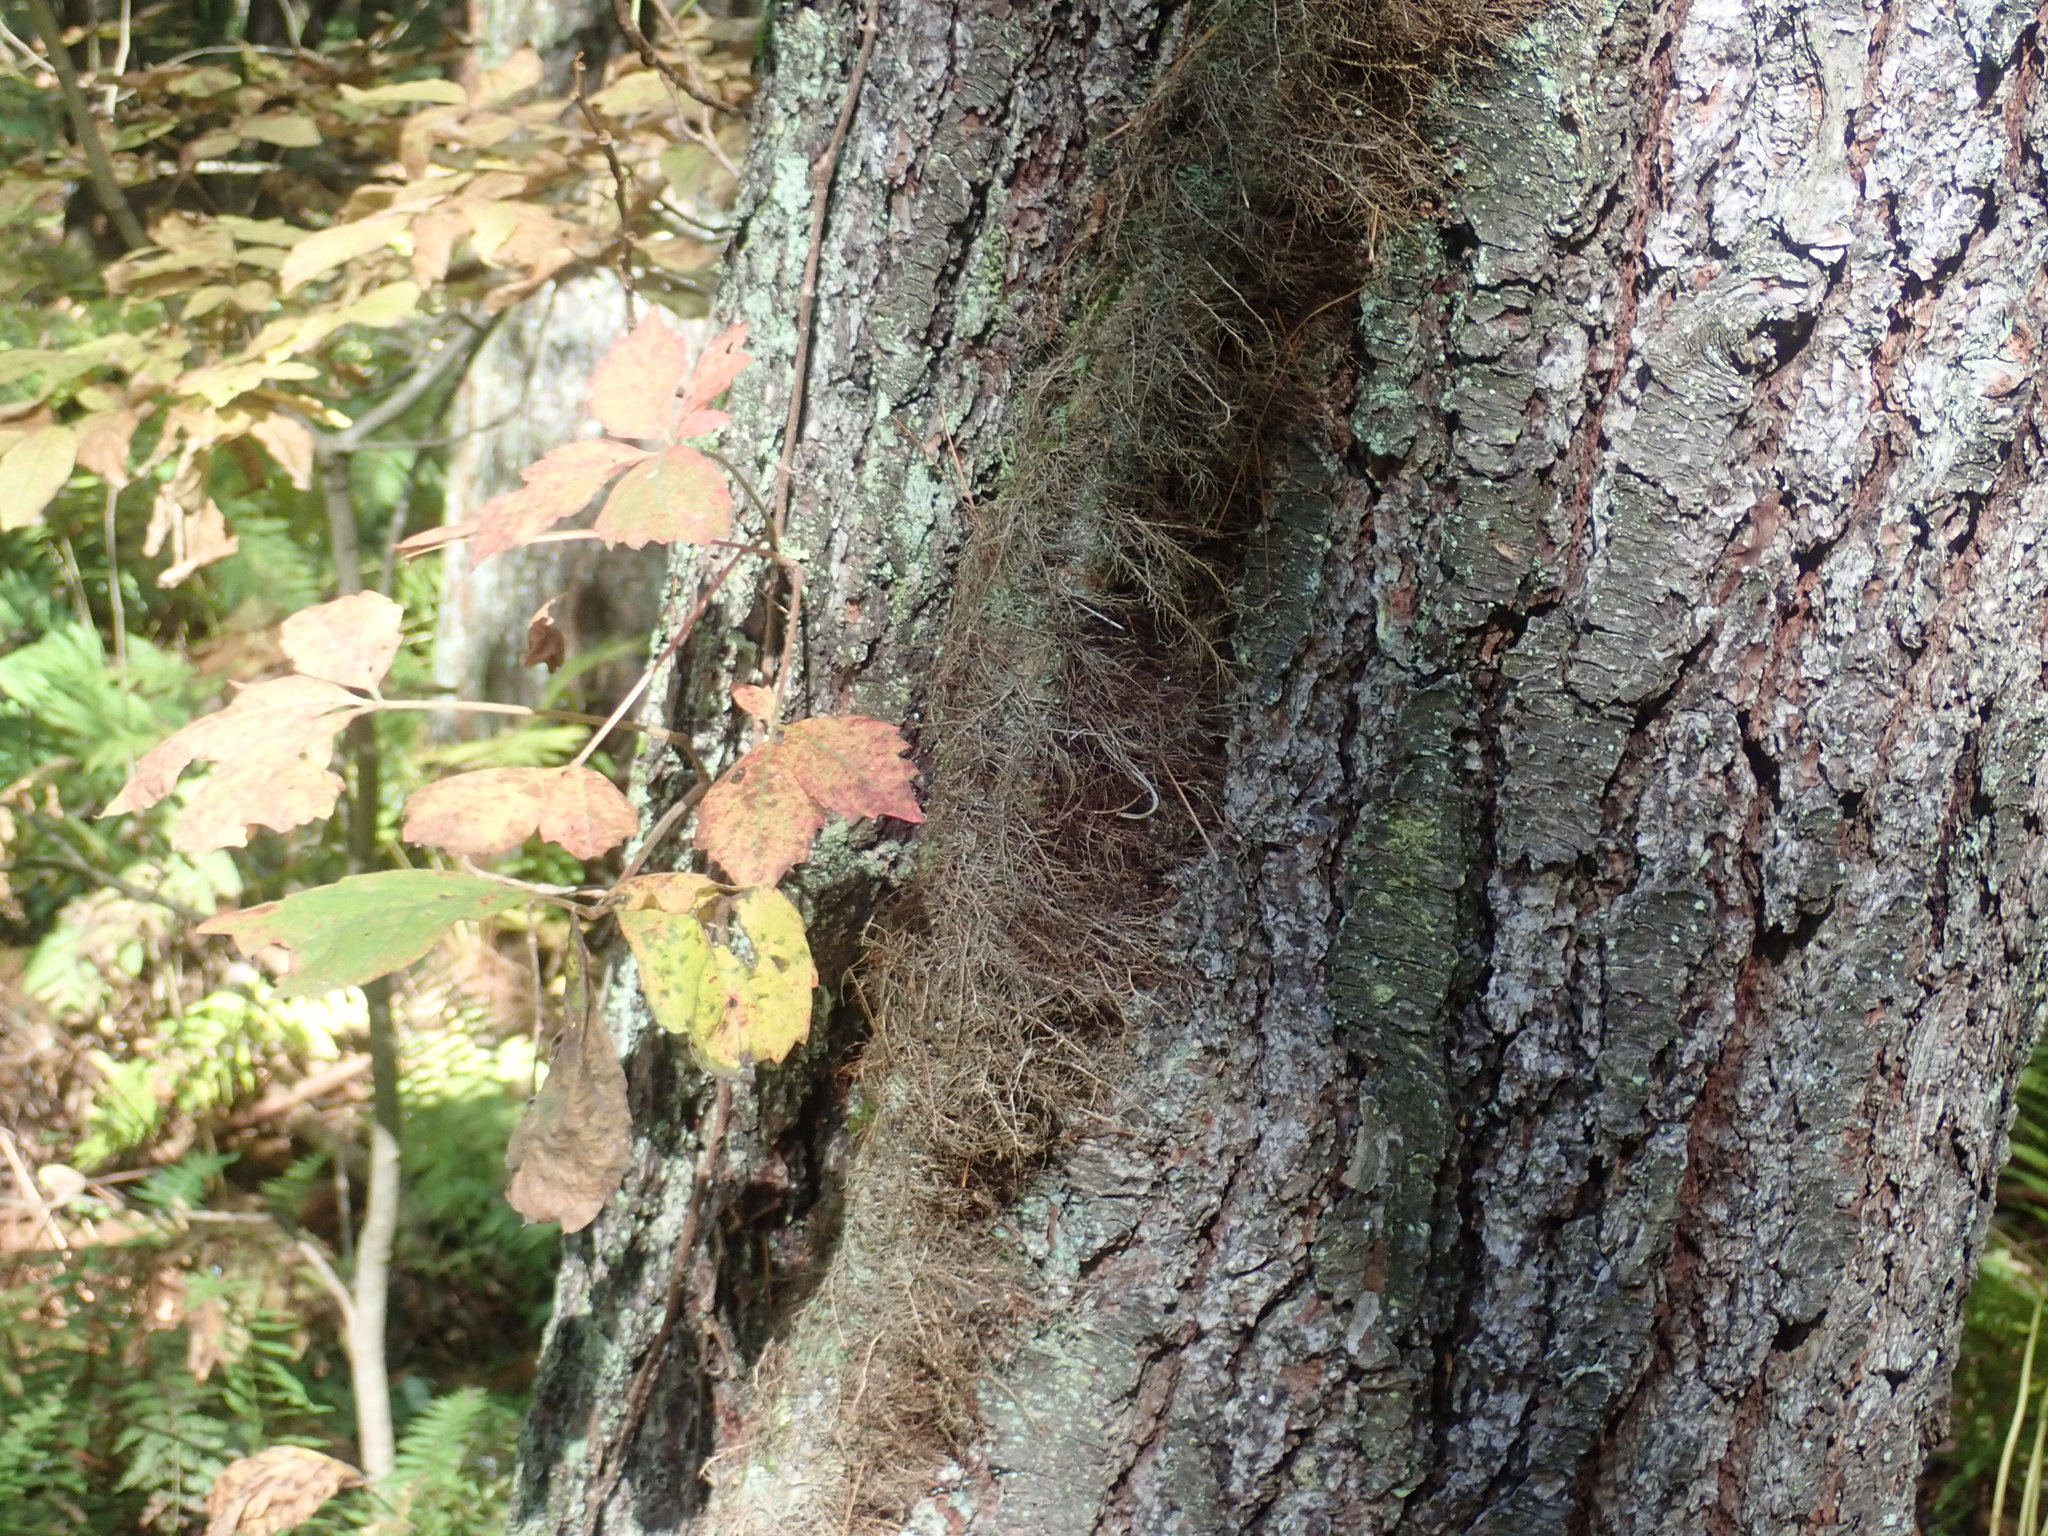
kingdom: Plantae
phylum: Tracheophyta
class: Magnoliopsida
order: Sapindales
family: Anacardiaceae
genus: Toxicodendron
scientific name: Toxicodendron radicans
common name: Poison ivy
